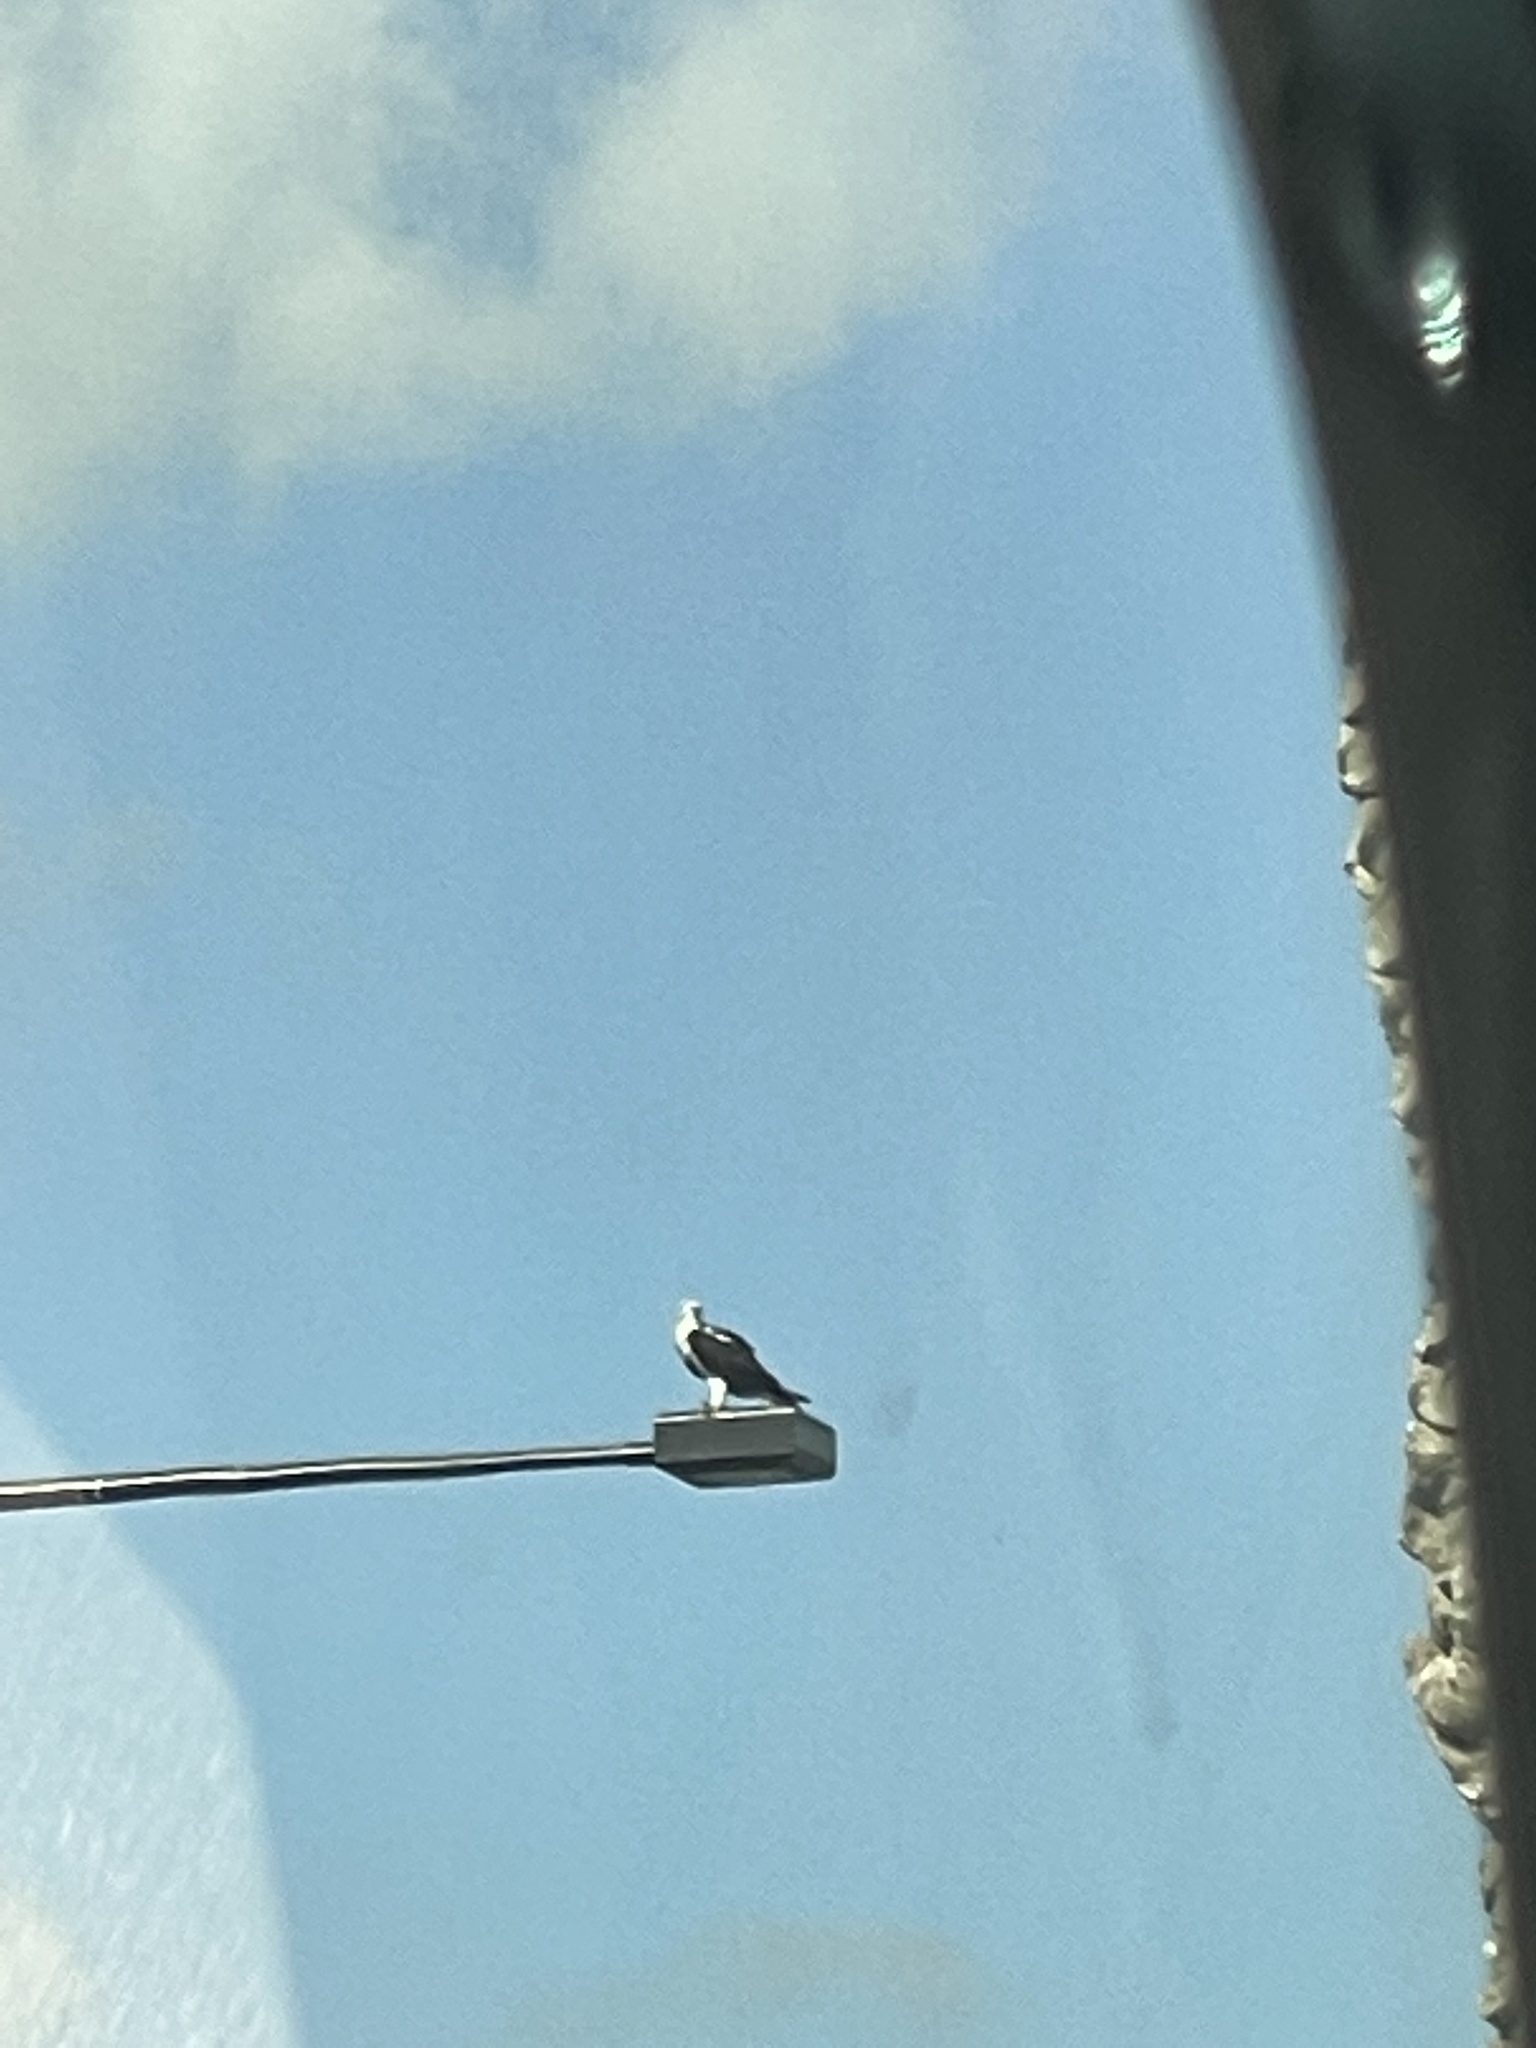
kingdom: Animalia
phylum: Chordata
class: Aves
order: Accipitriformes
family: Pandionidae
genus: Pandion
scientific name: Pandion haliaetus
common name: Osprey
